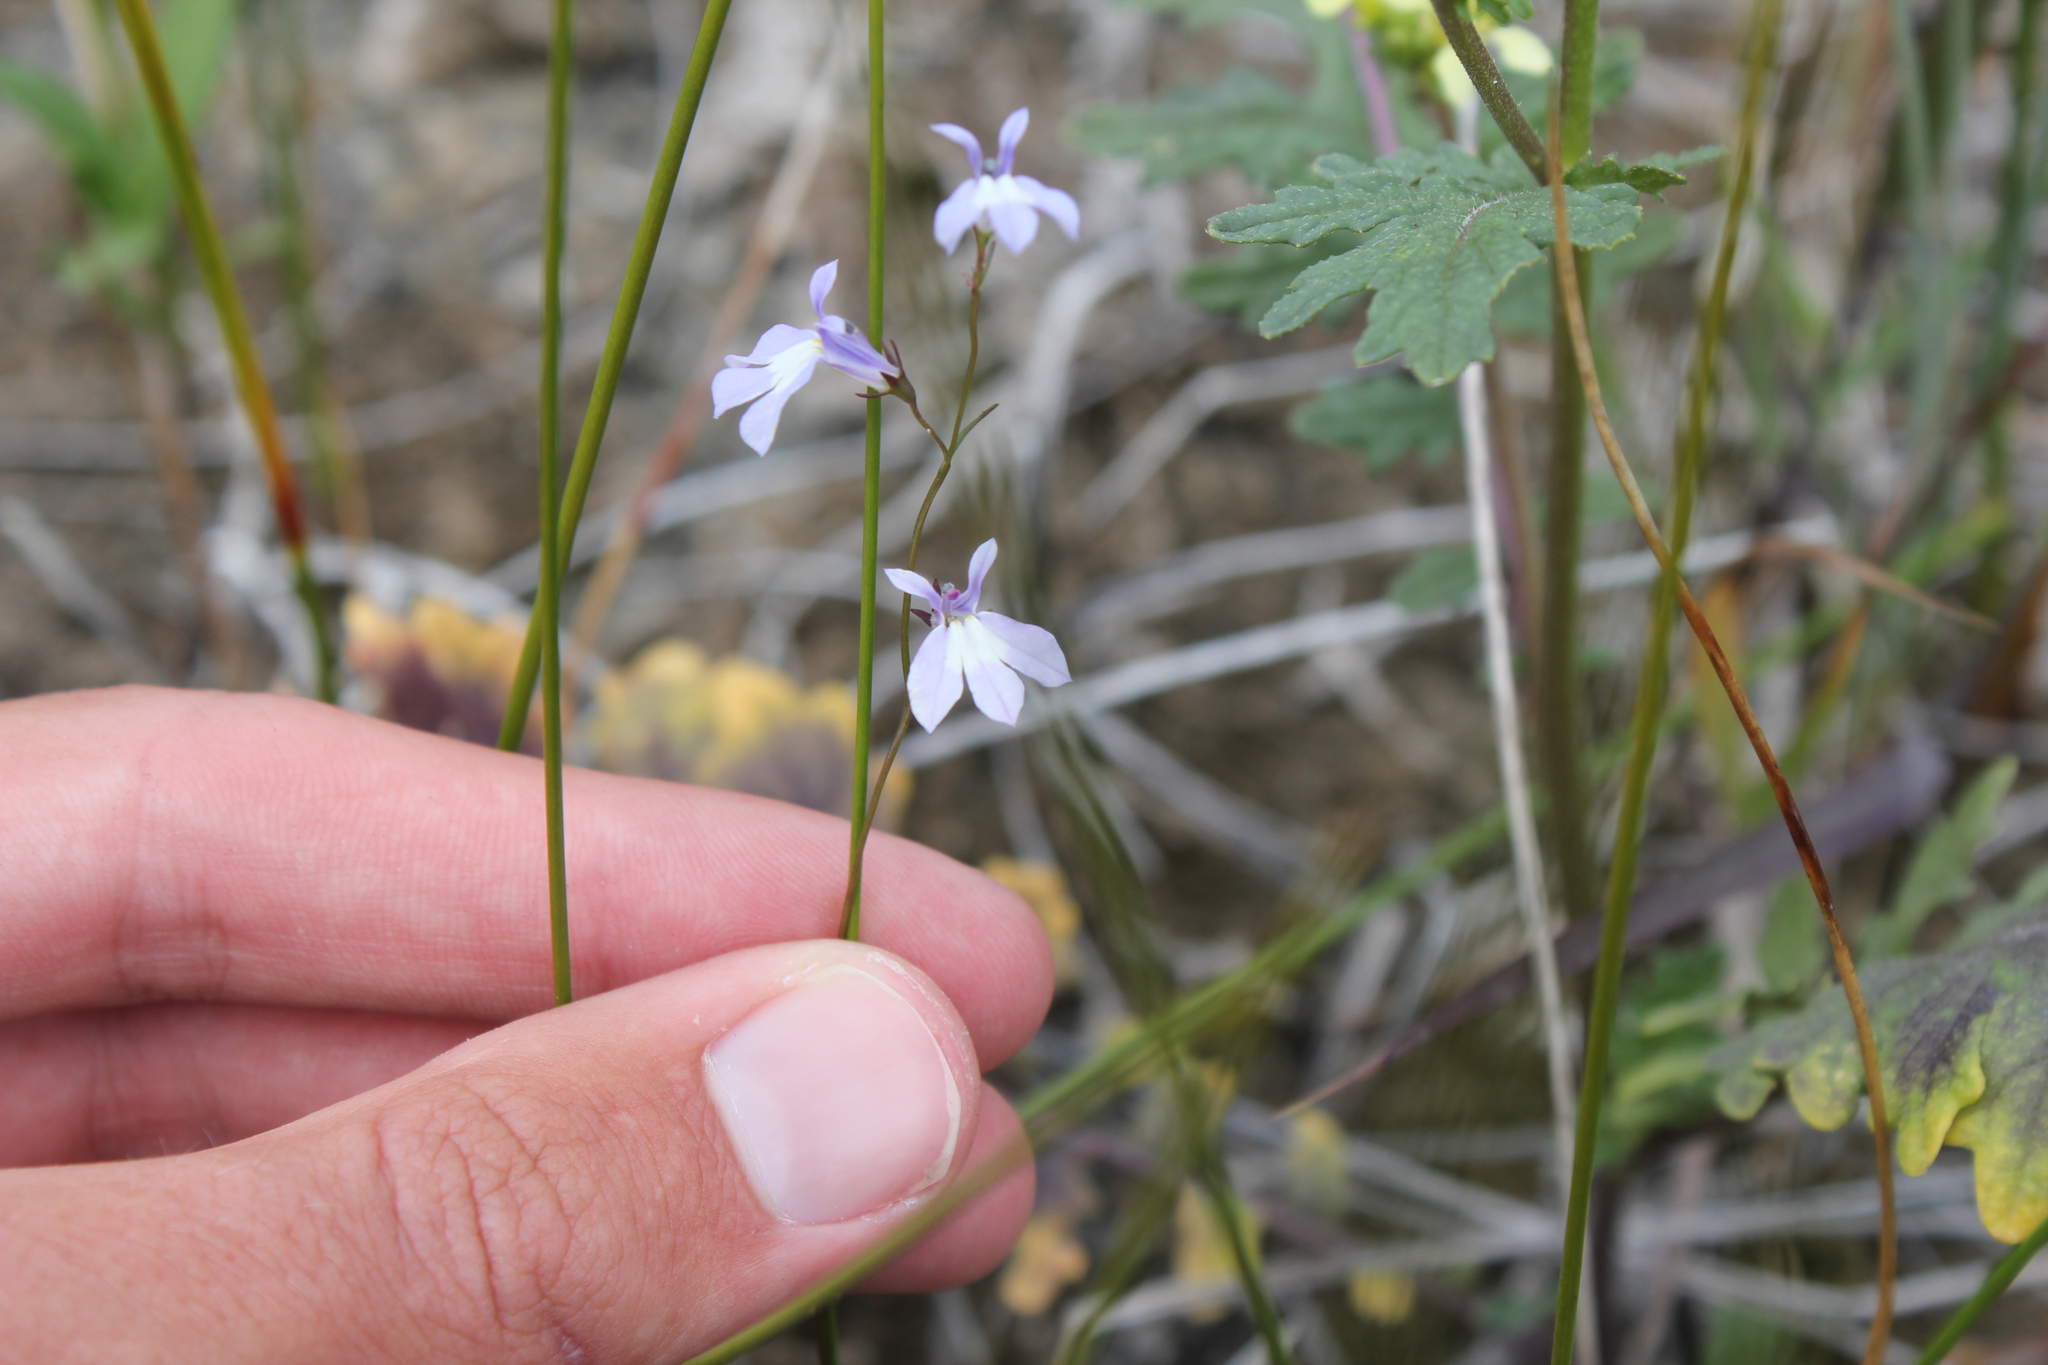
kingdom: Plantae
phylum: Tracheophyta
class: Magnoliopsida
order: Asterales
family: Campanulaceae
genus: Lobelia
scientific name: Lobelia kalmii
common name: Kalm's lobelia
